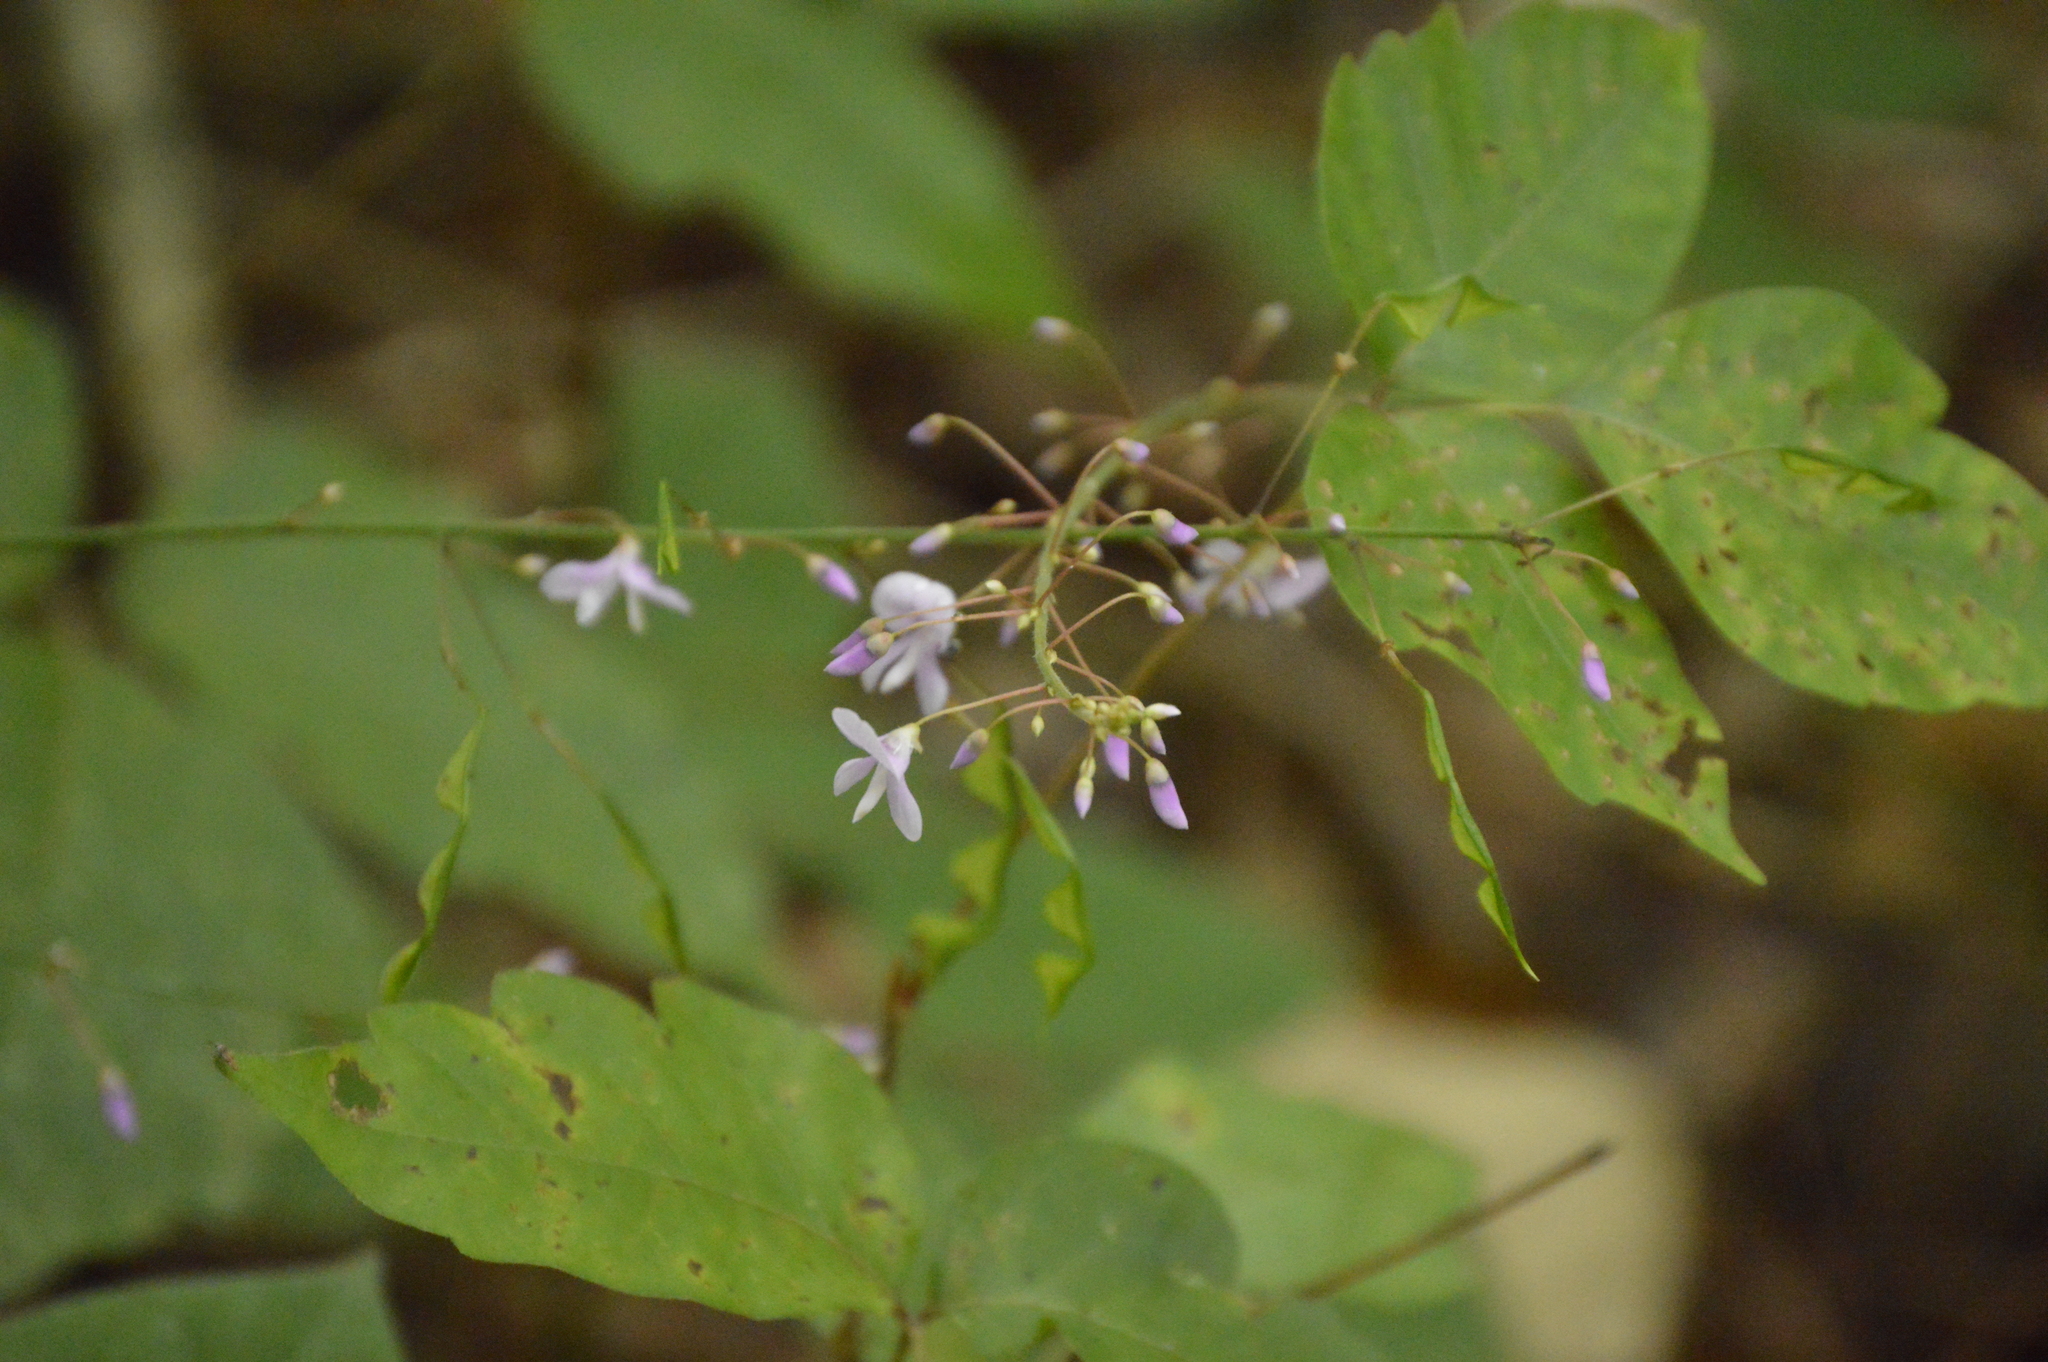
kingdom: Plantae
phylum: Tracheophyta
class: Magnoliopsida
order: Fabales
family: Fabaceae
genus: Hylodesmum
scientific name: Hylodesmum nudiflorum
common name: Bare-stemmed tick-trefoil
